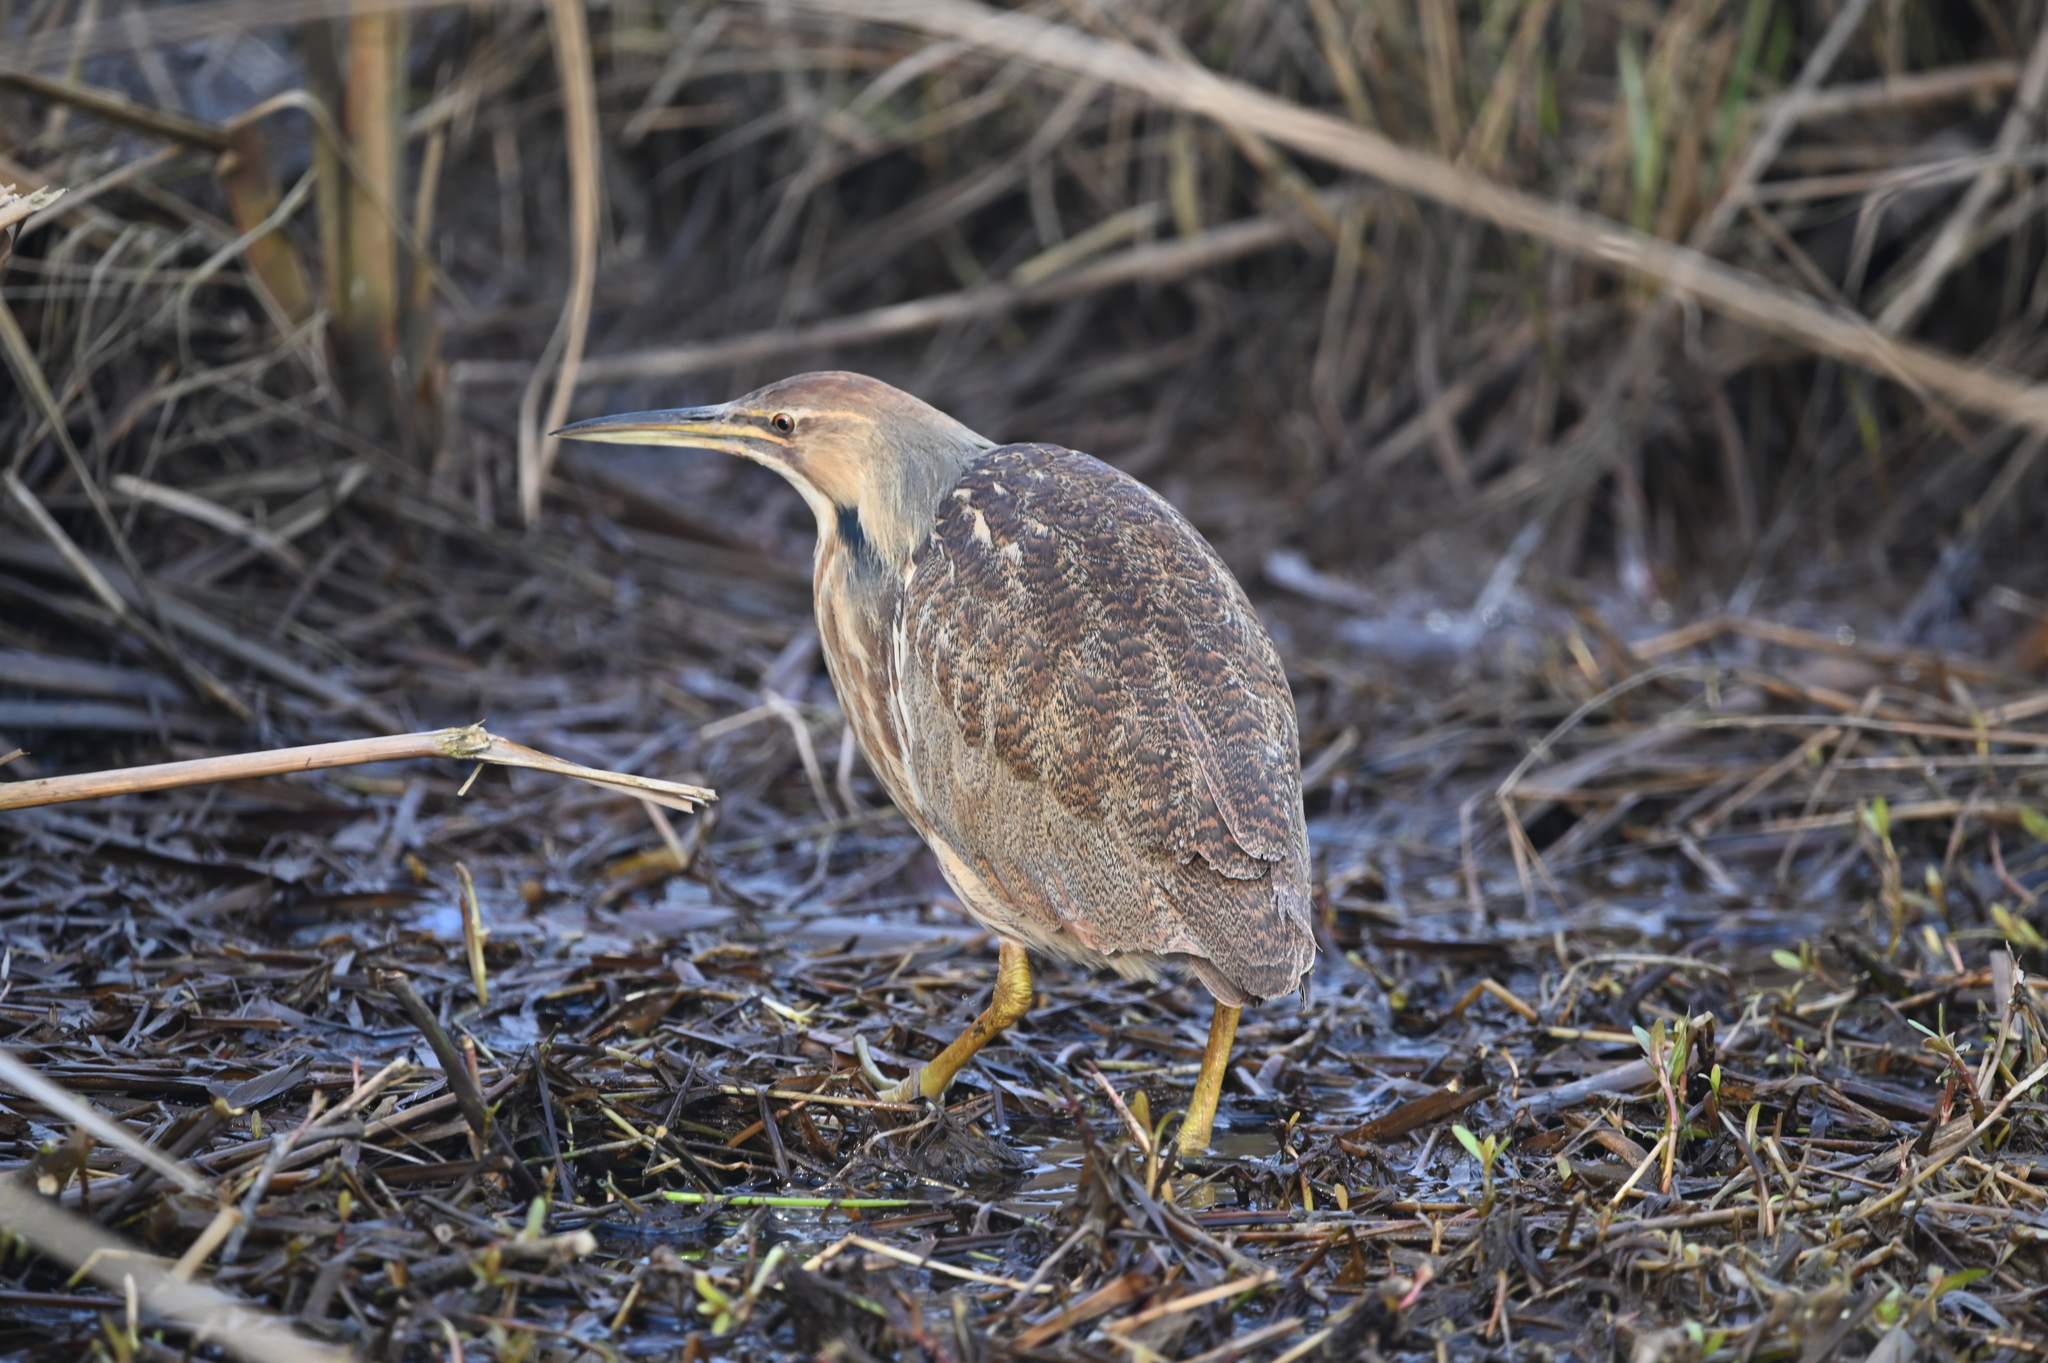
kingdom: Animalia
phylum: Chordata
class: Aves
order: Pelecaniformes
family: Ardeidae
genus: Botaurus
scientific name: Botaurus lentiginosus
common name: American bittern
